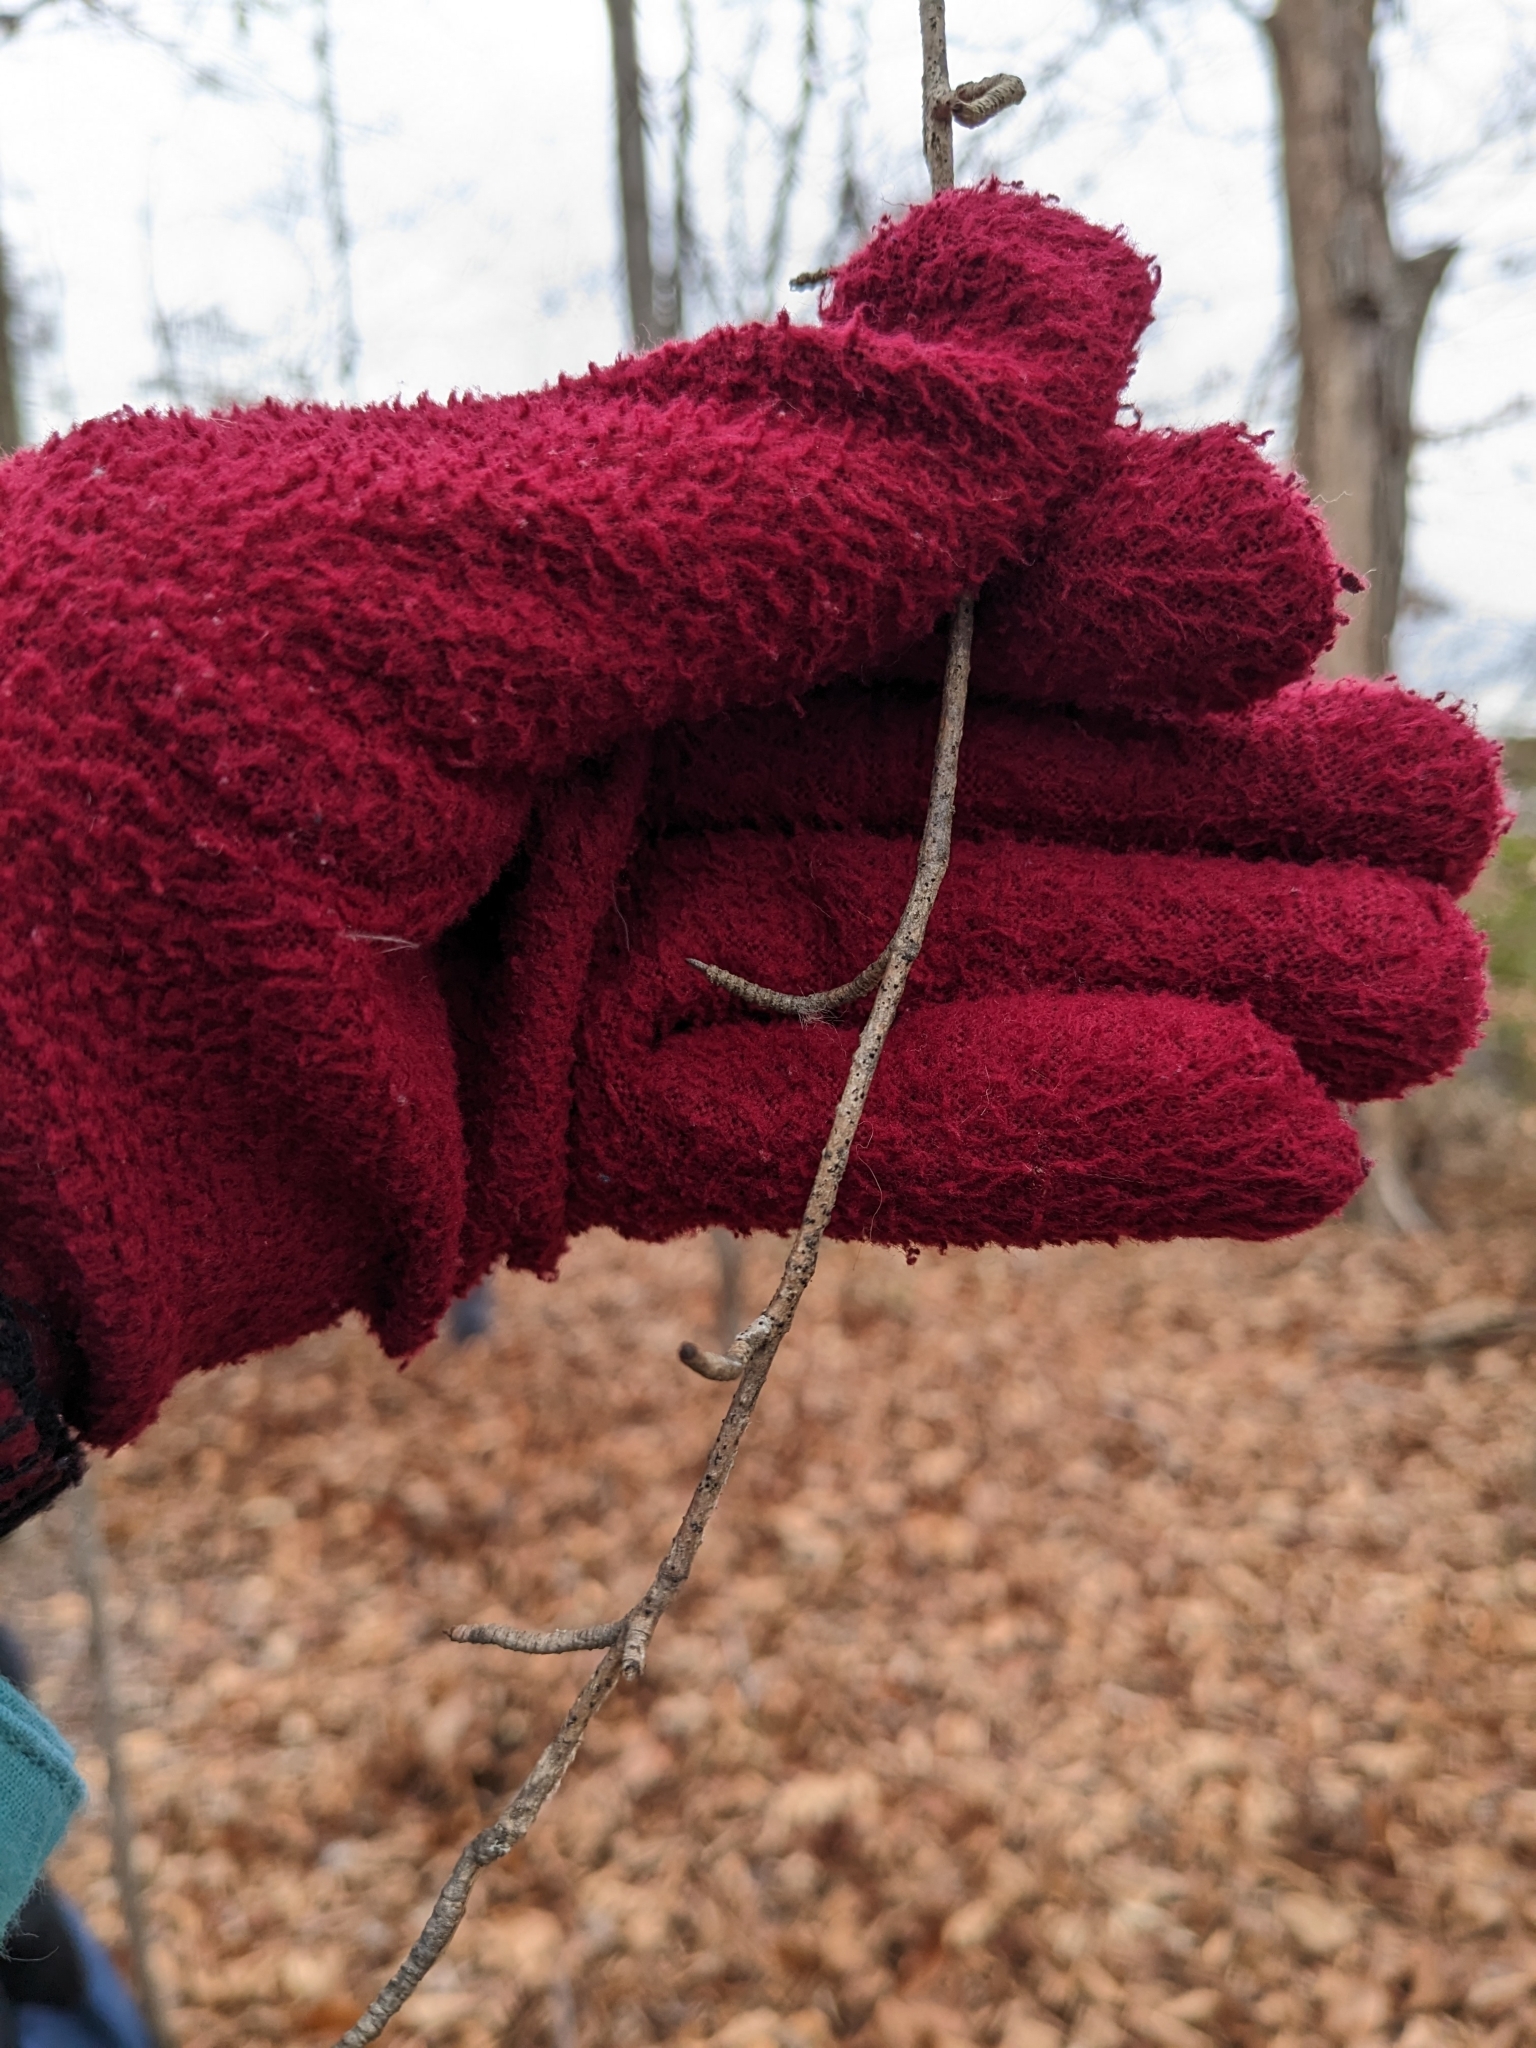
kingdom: Plantae
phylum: Tracheophyta
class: Magnoliopsida
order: Dipsacales
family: Viburnaceae
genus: Viburnum
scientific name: Viburnum prunifolium
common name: Black haw
